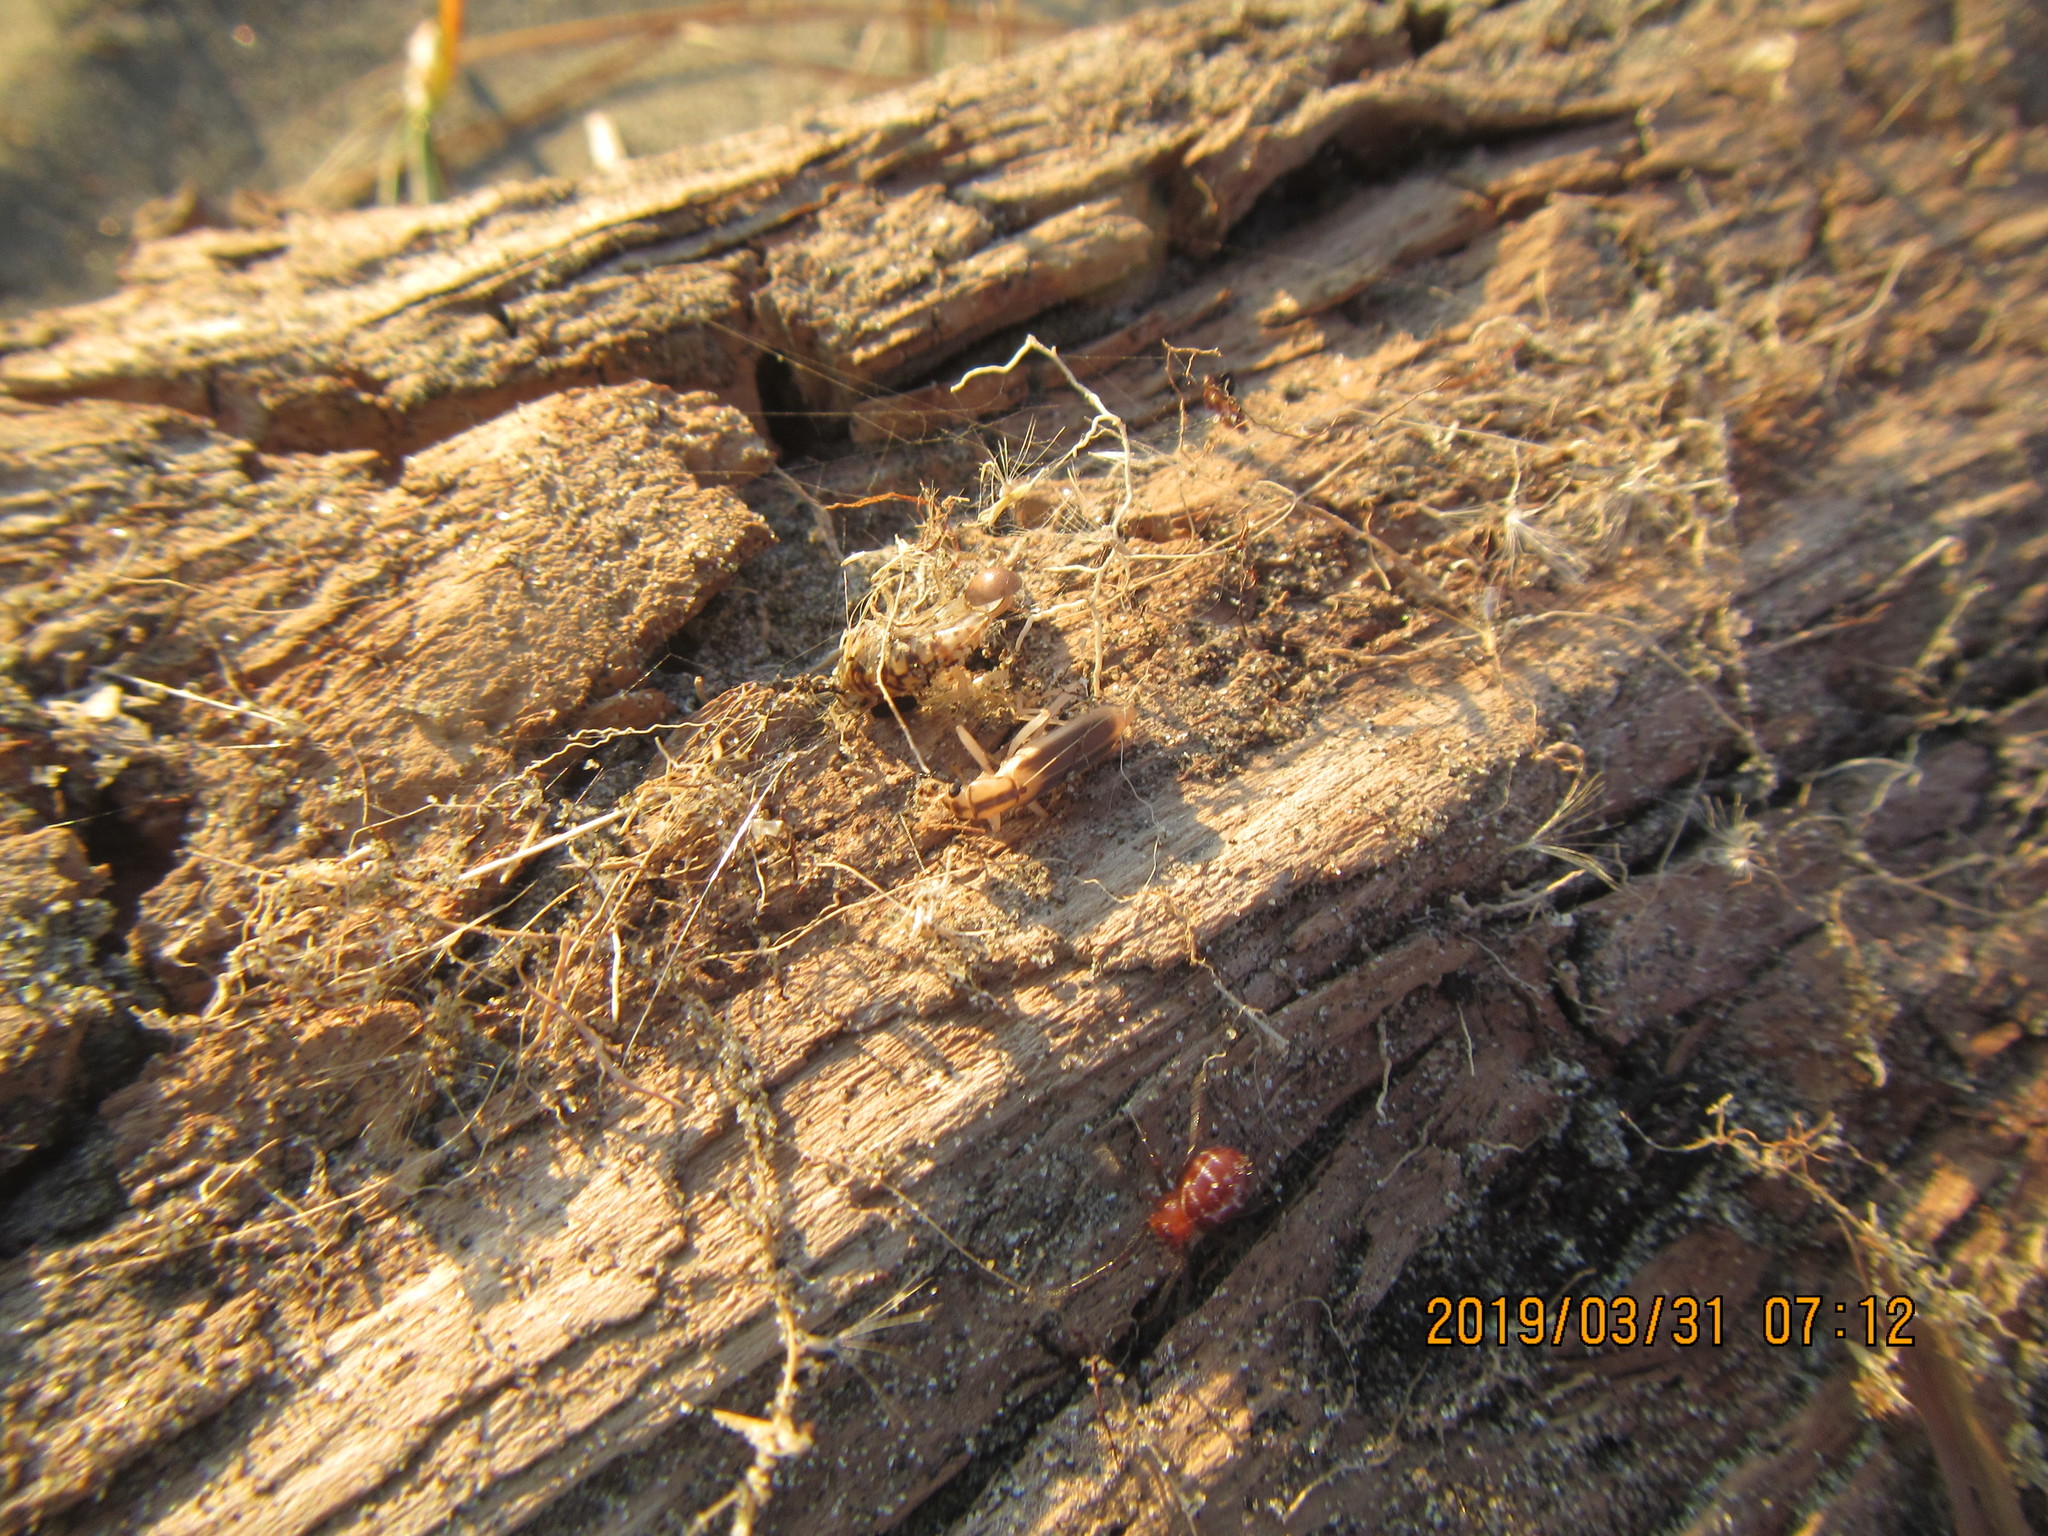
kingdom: Animalia
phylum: Arthropoda
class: Arachnida
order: Araneae
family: Theridiidae
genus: Steatoda
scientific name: Steatoda capensis
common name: Cobweb weaver
